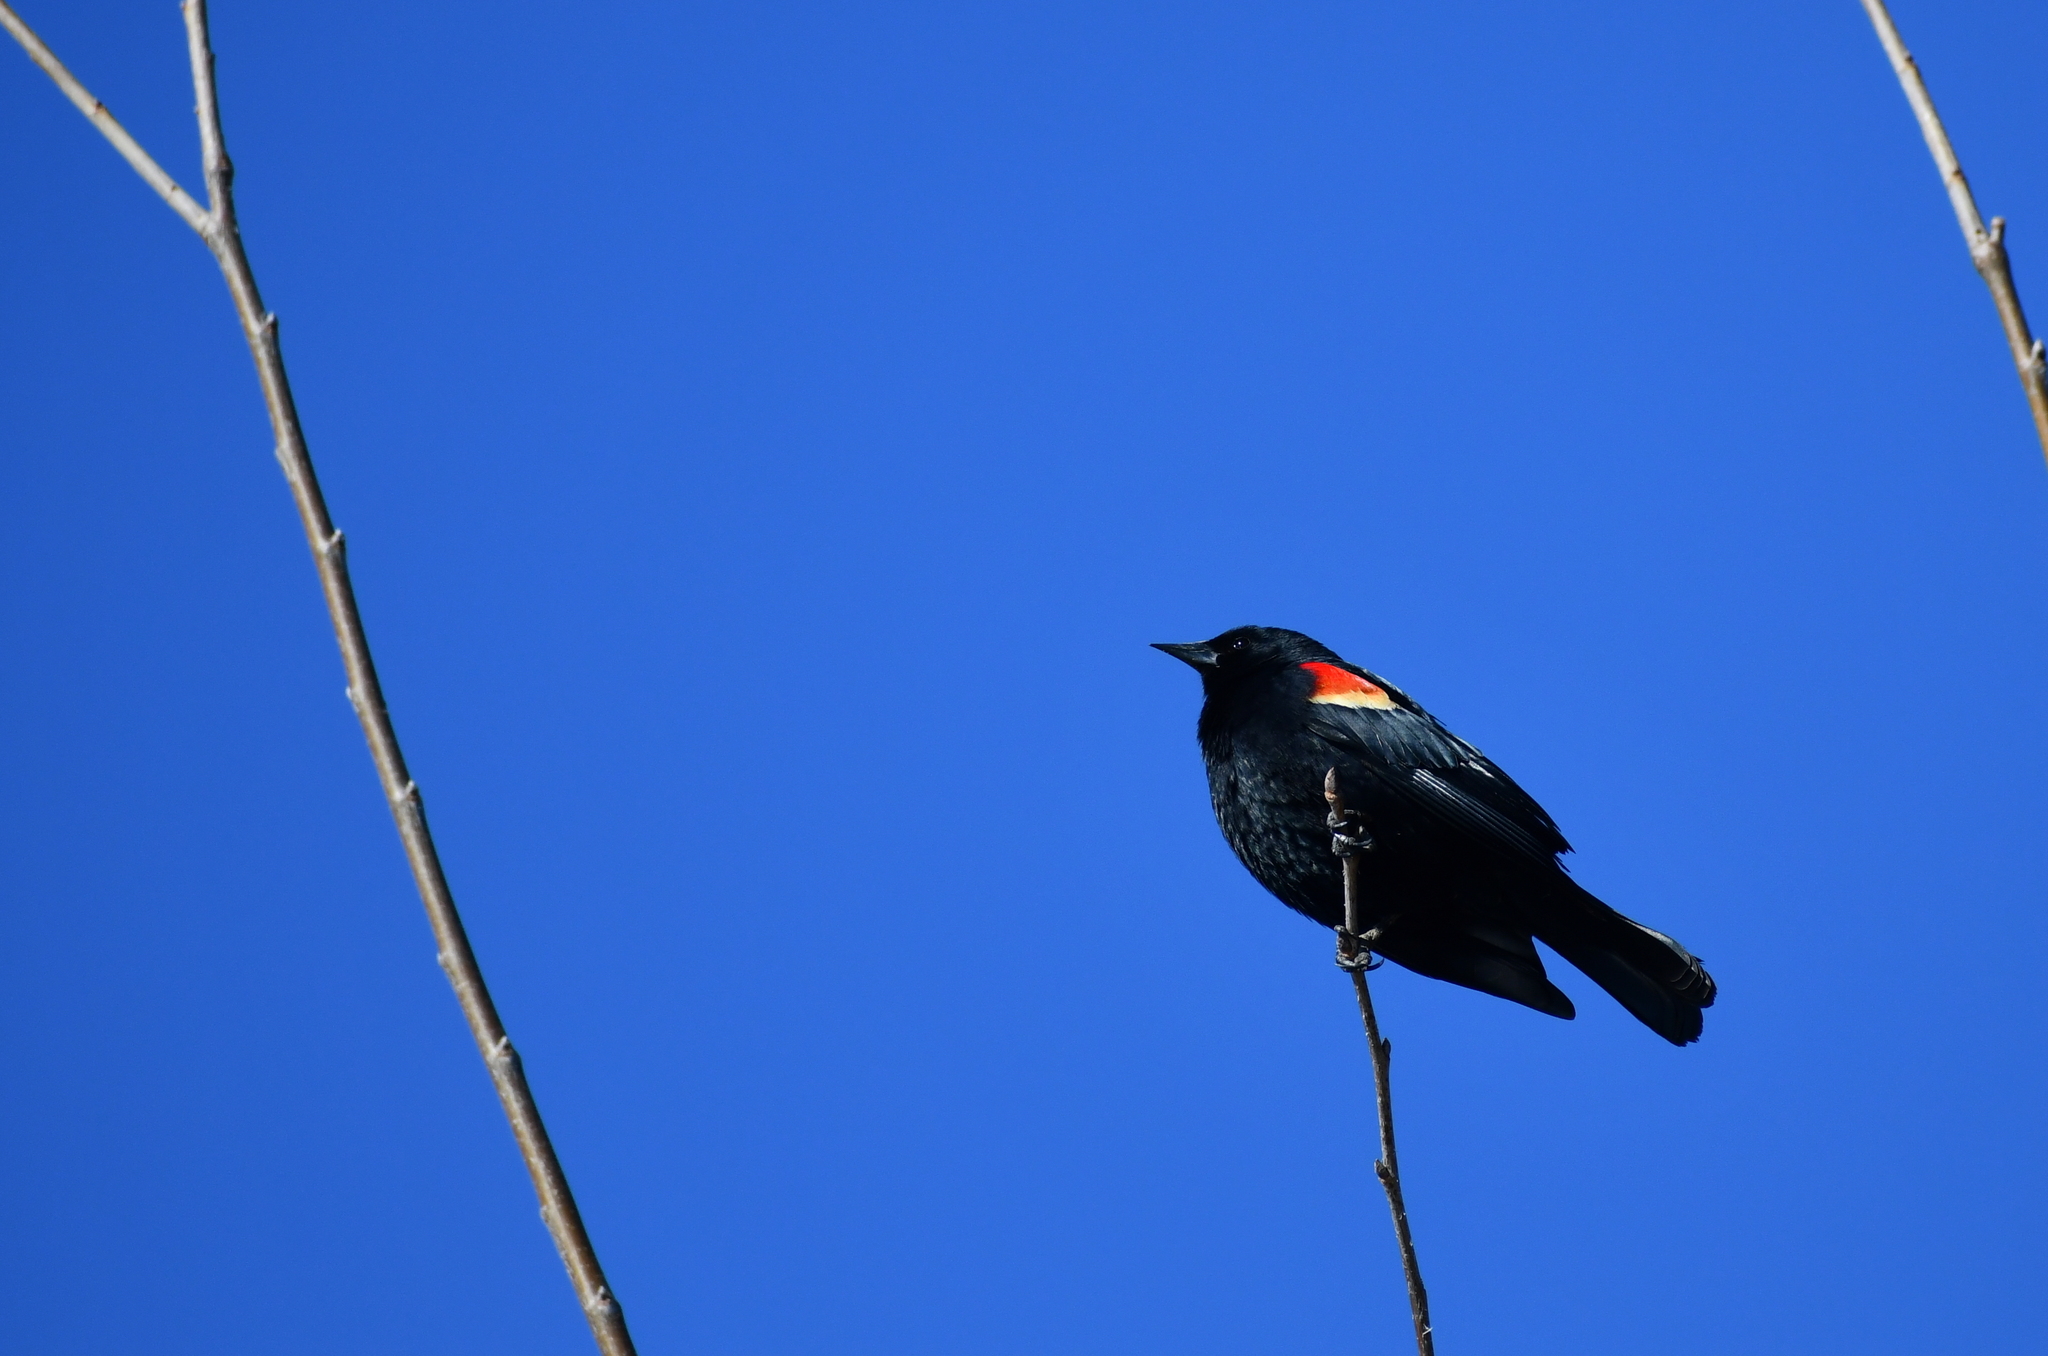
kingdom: Animalia
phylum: Chordata
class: Aves
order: Passeriformes
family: Icteridae
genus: Agelaius
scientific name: Agelaius phoeniceus
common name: Red-winged blackbird
